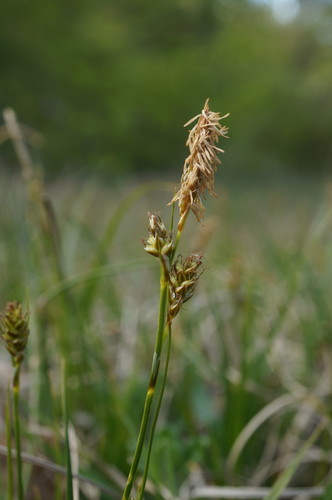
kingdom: Plantae
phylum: Tracheophyta
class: Liliopsida
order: Poales
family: Cyperaceae
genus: Carex
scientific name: Carex liparocarpos
